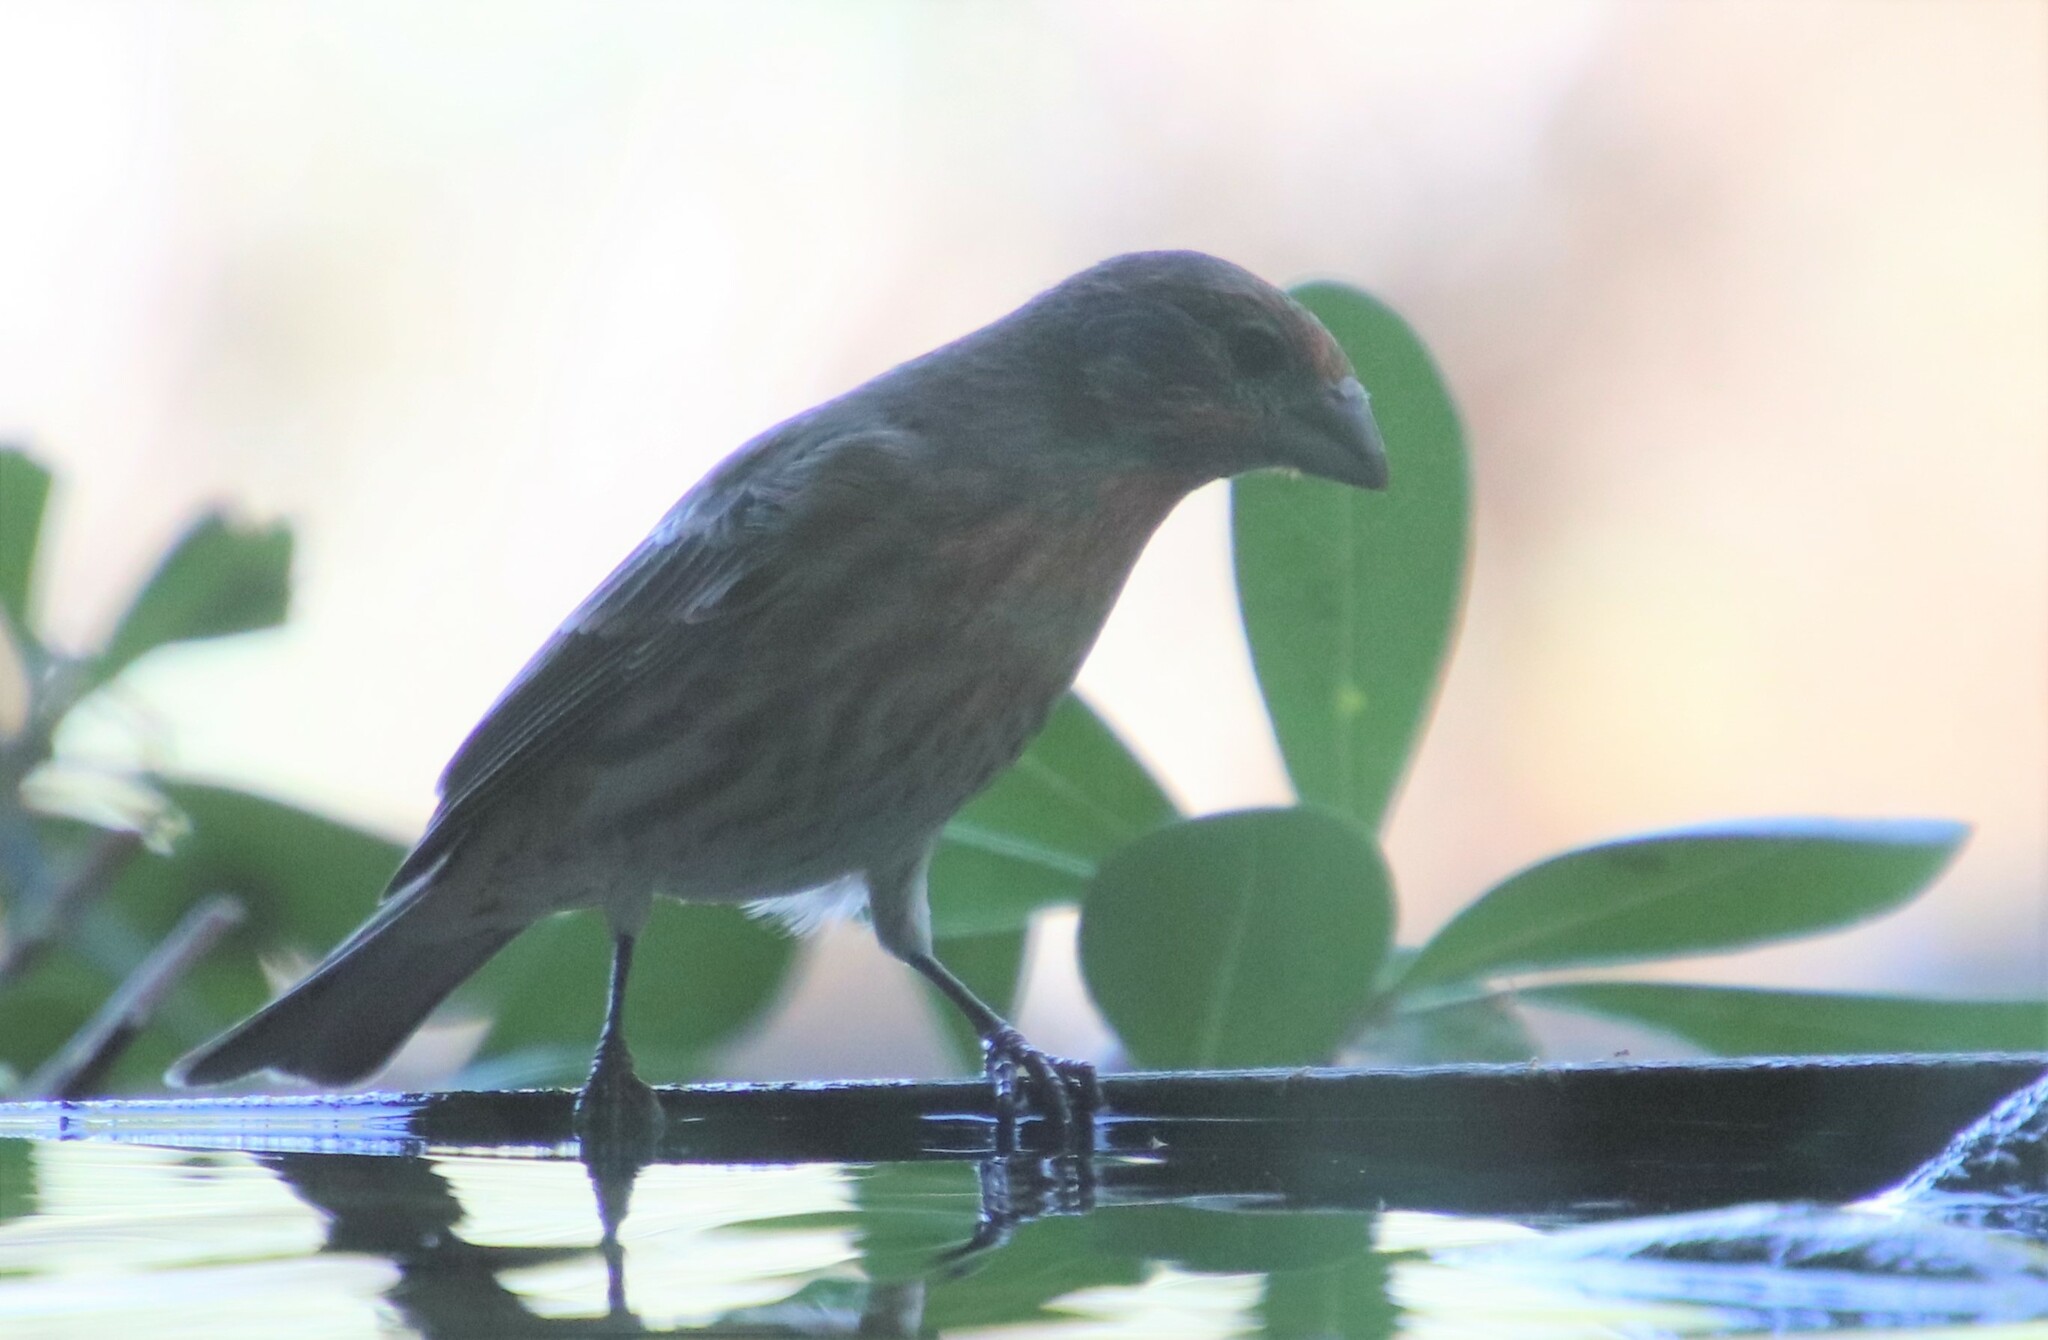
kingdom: Animalia
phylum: Chordata
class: Aves
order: Passeriformes
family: Fringillidae
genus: Haemorhous
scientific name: Haemorhous mexicanus
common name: House finch
